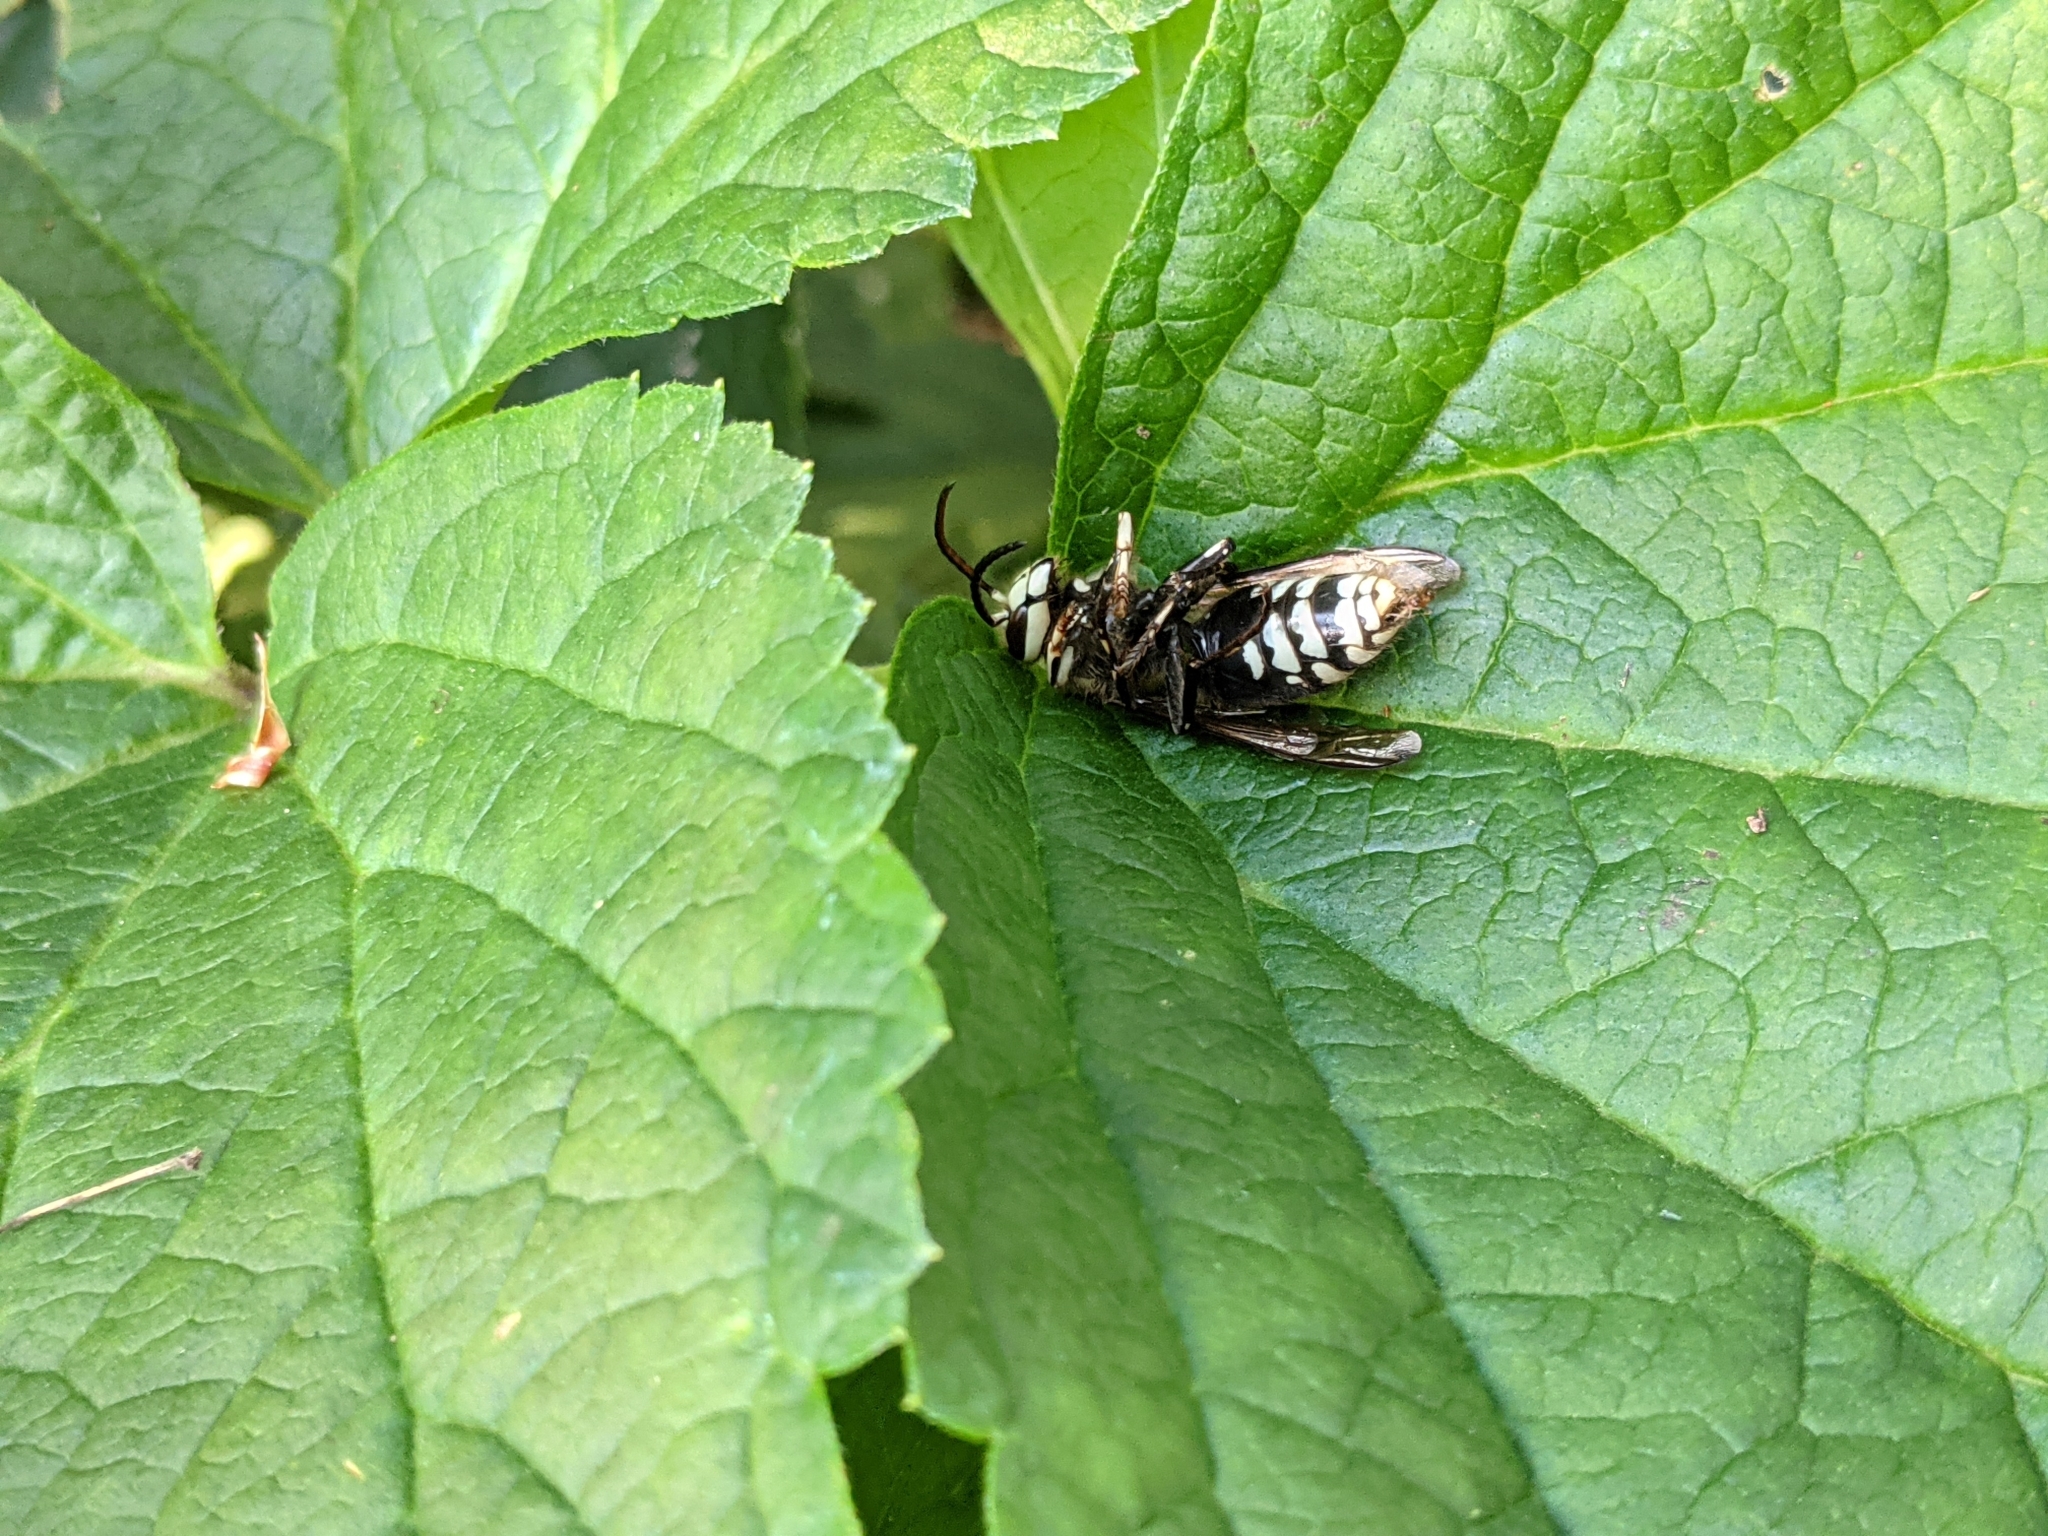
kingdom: Animalia
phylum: Arthropoda
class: Insecta
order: Hymenoptera
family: Vespidae
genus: Dolichovespula
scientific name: Dolichovespula maculata
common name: Bald-faced hornet
